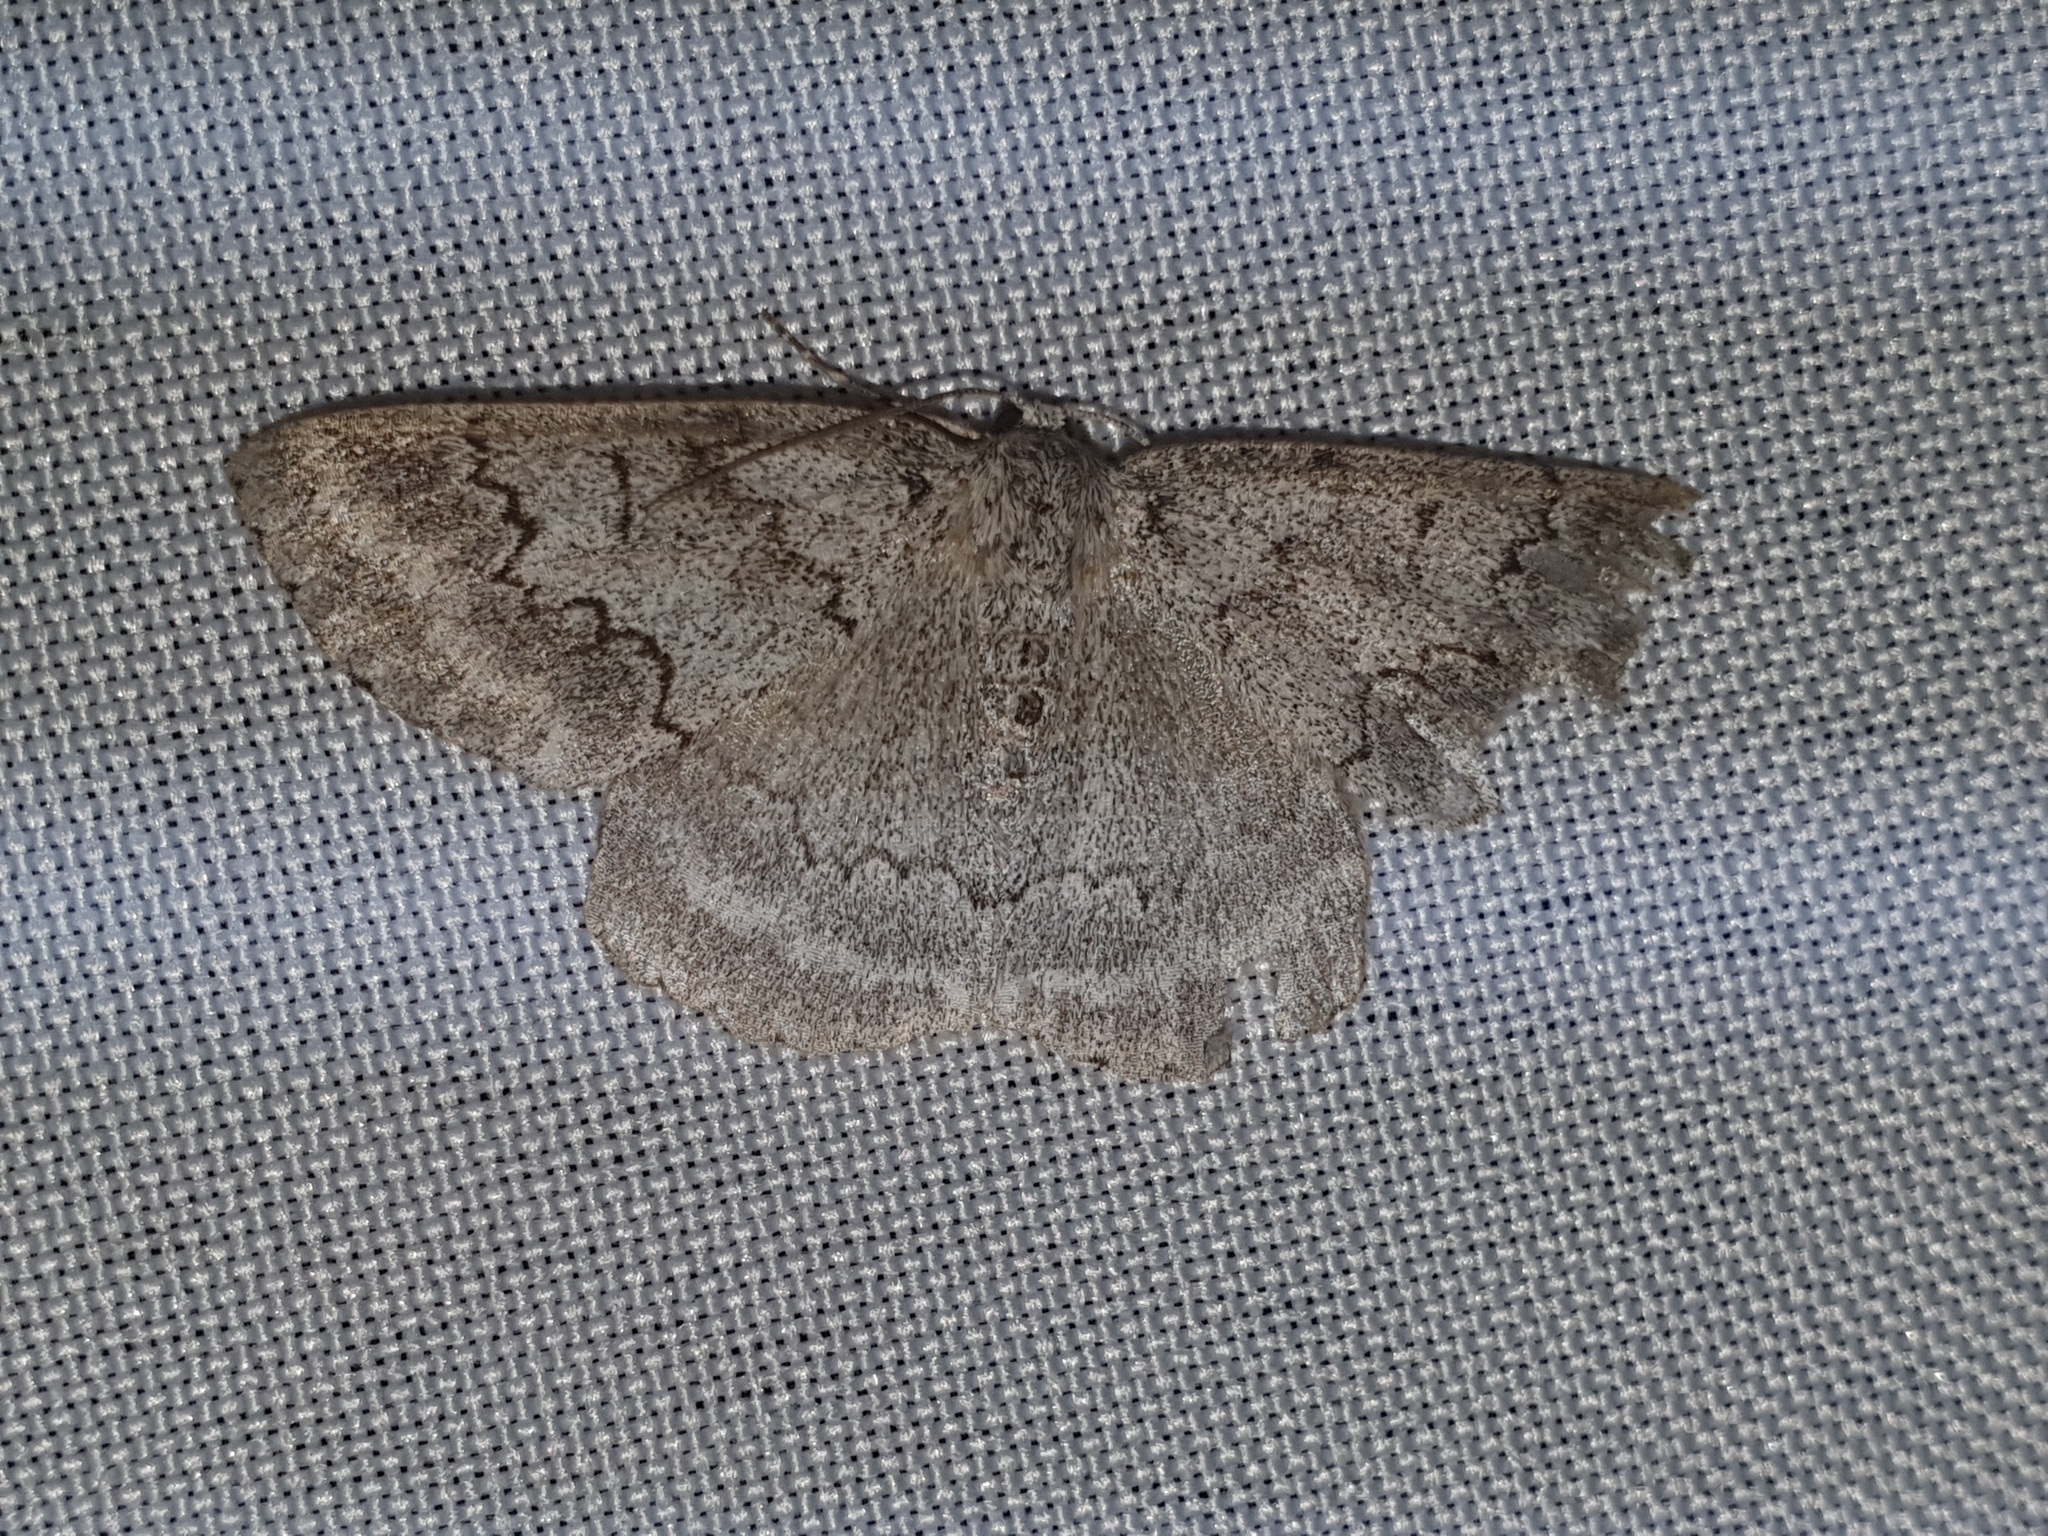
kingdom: Animalia
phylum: Arthropoda
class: Insecta
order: Lepidoptera
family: Geometridae
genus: Pseudoterpna
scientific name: Pseudoterpna coronillaria
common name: Jersey emerald
